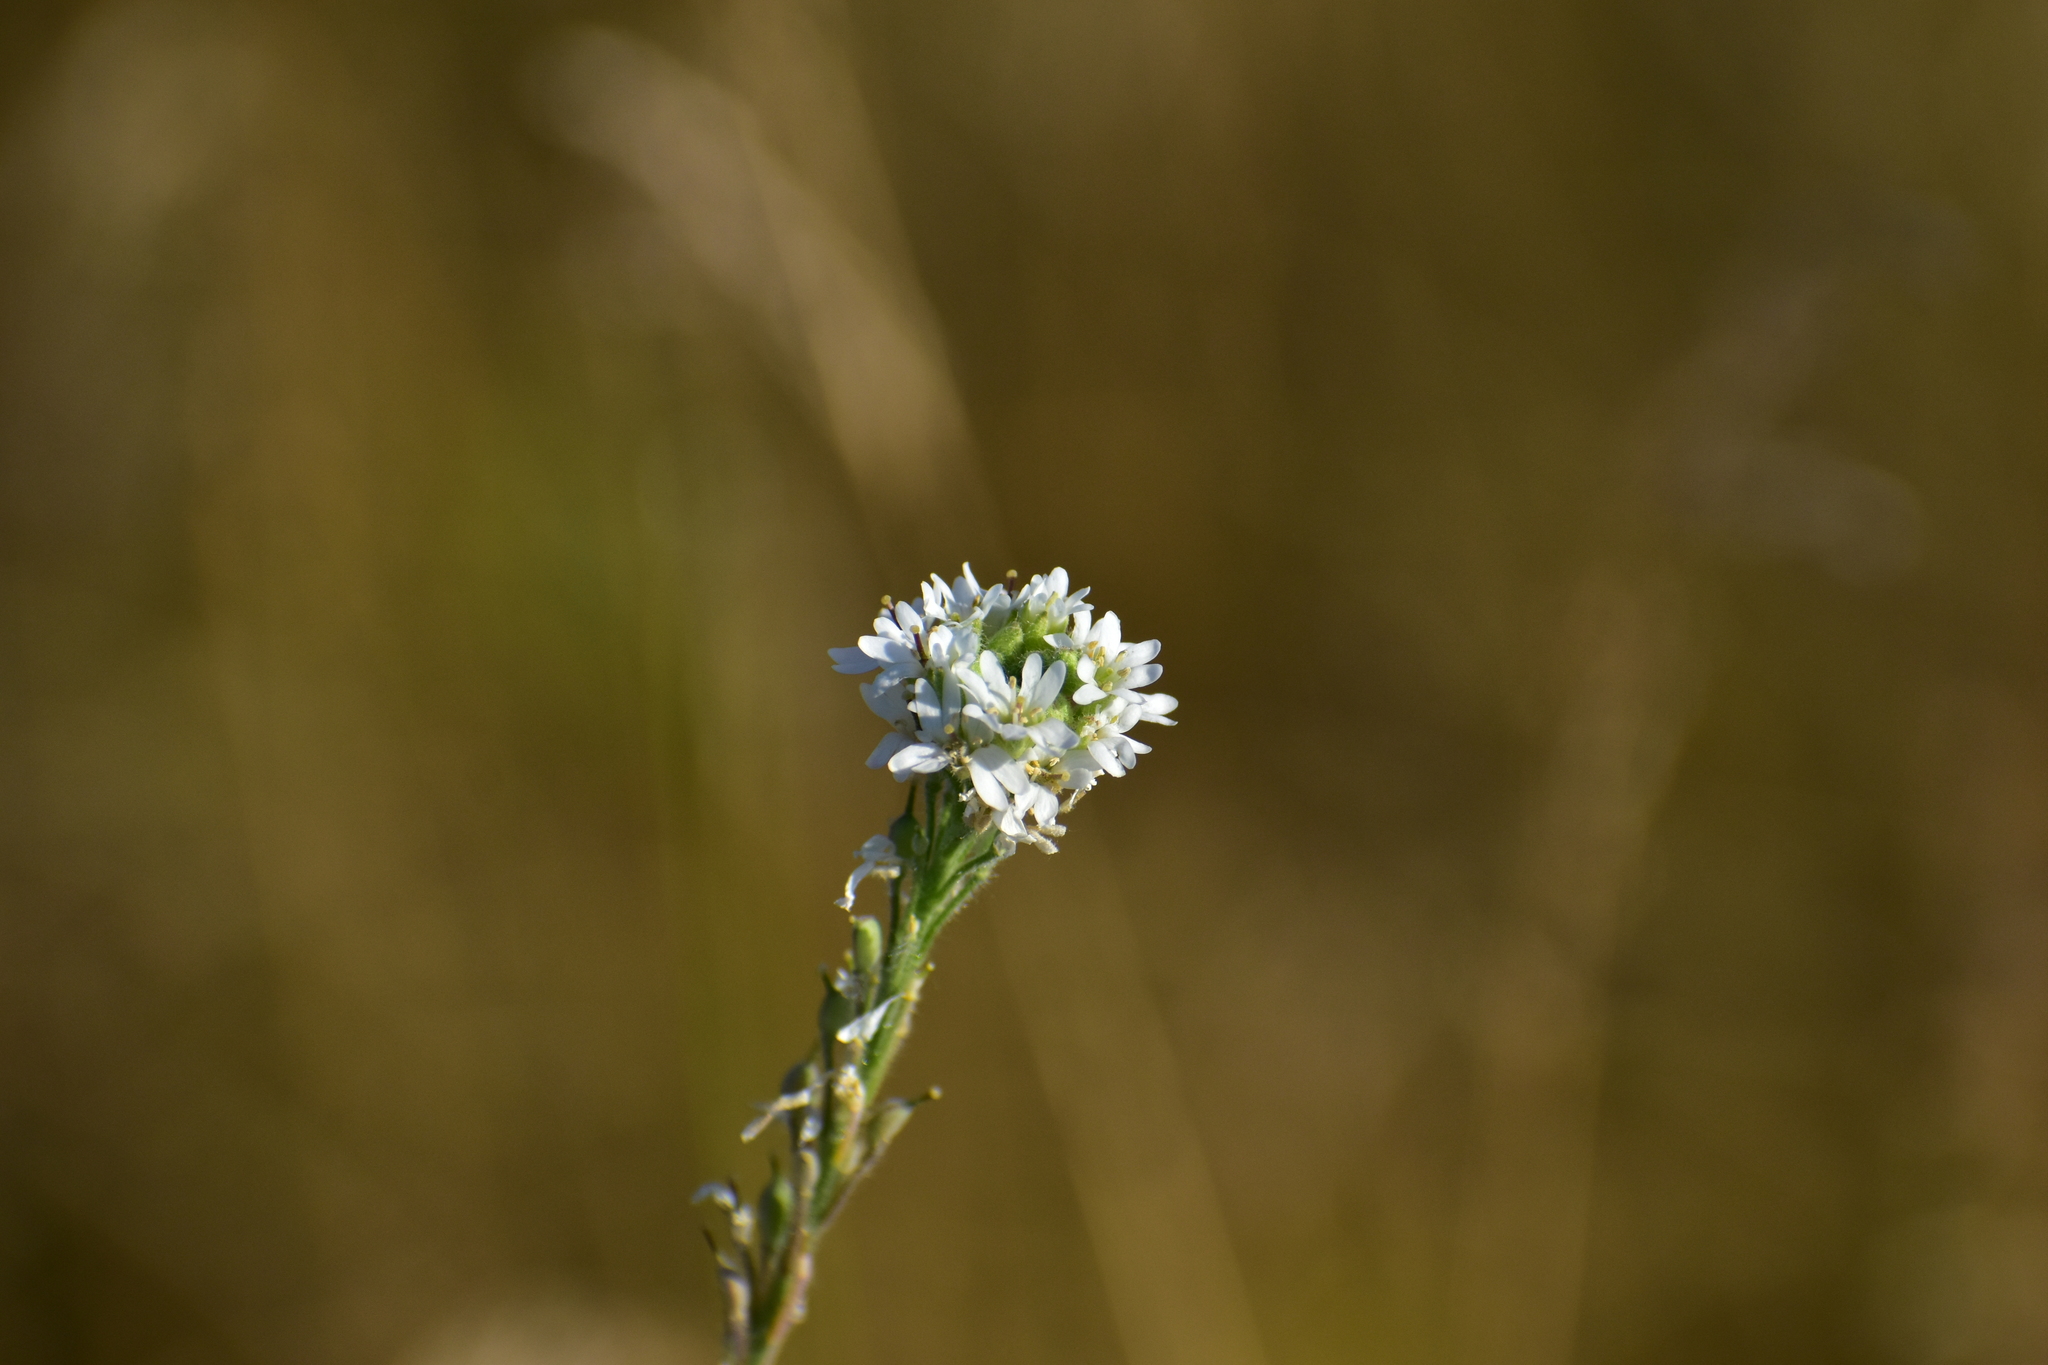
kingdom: Plantae
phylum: Tracheophyta
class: Magnoliopsida
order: Brassicales
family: Brassicaceae
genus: Berteroa
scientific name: Berteroa incana
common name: Hoary alison
